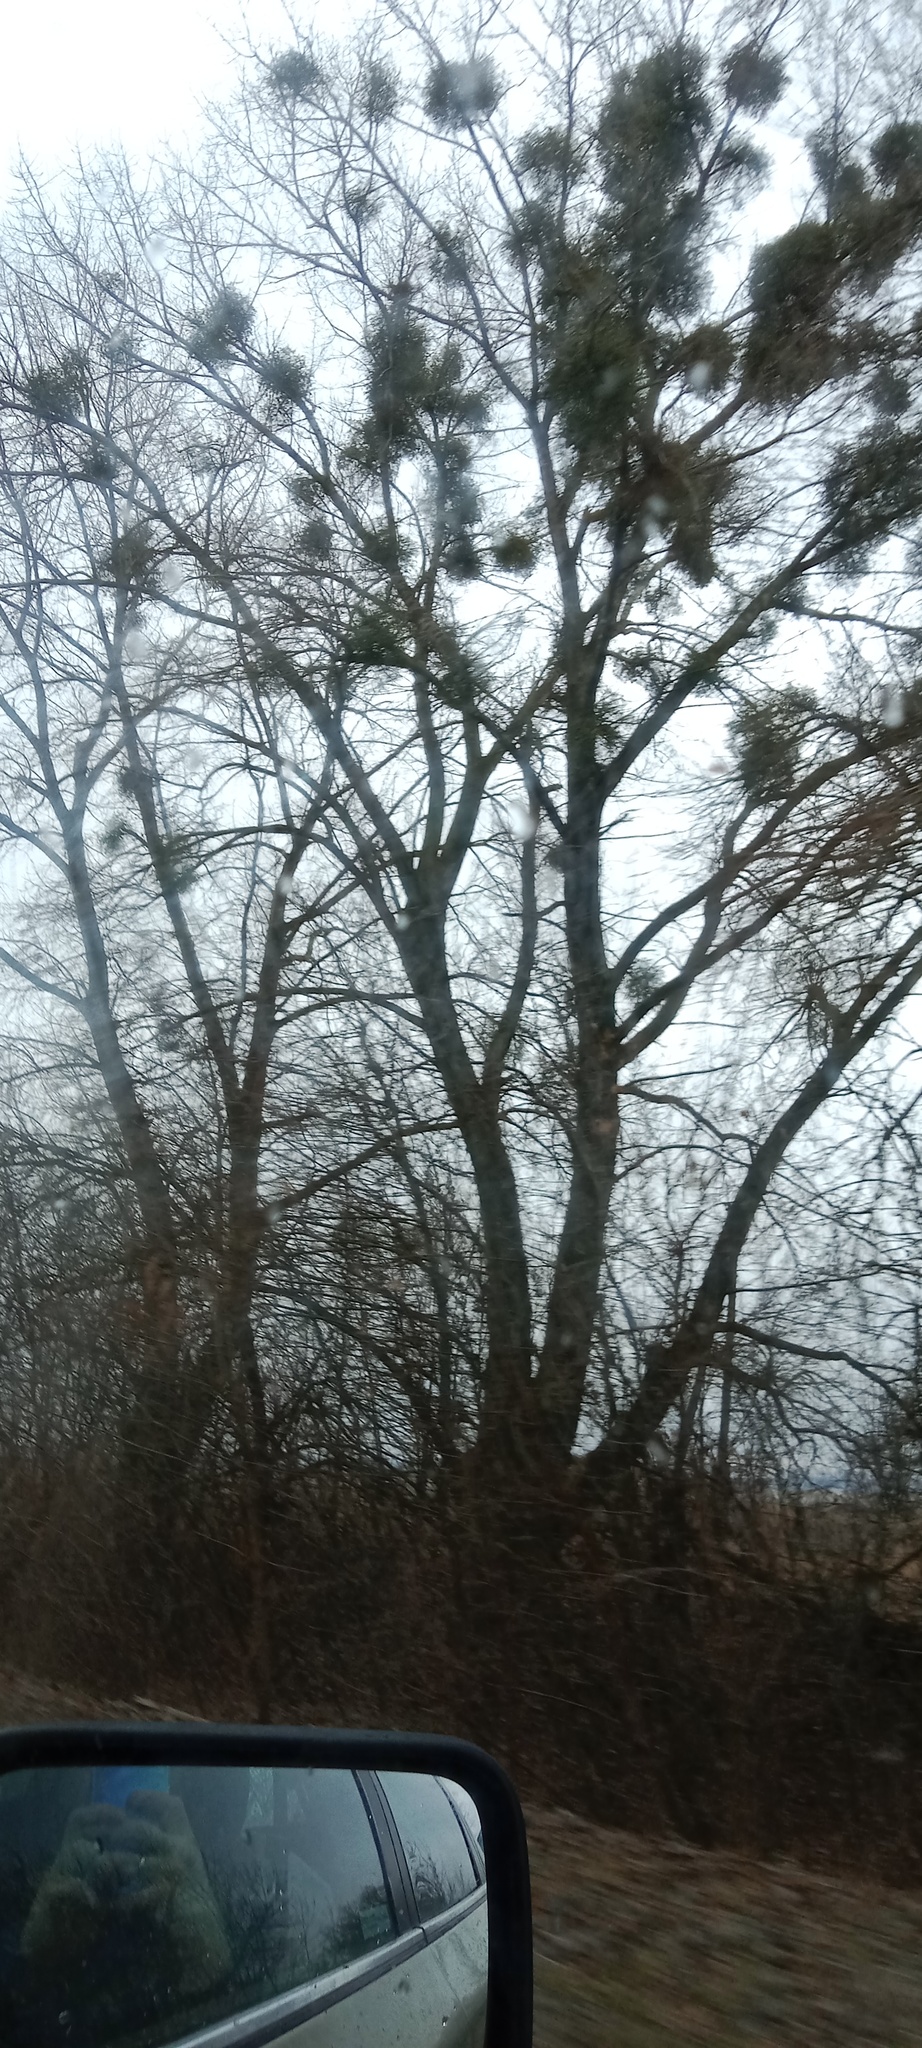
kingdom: Plantae
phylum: Tracheophyta
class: Magnoliopsida
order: Santalales
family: Viscaceae
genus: Viscum
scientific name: Viscum album
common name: Mistletoe
